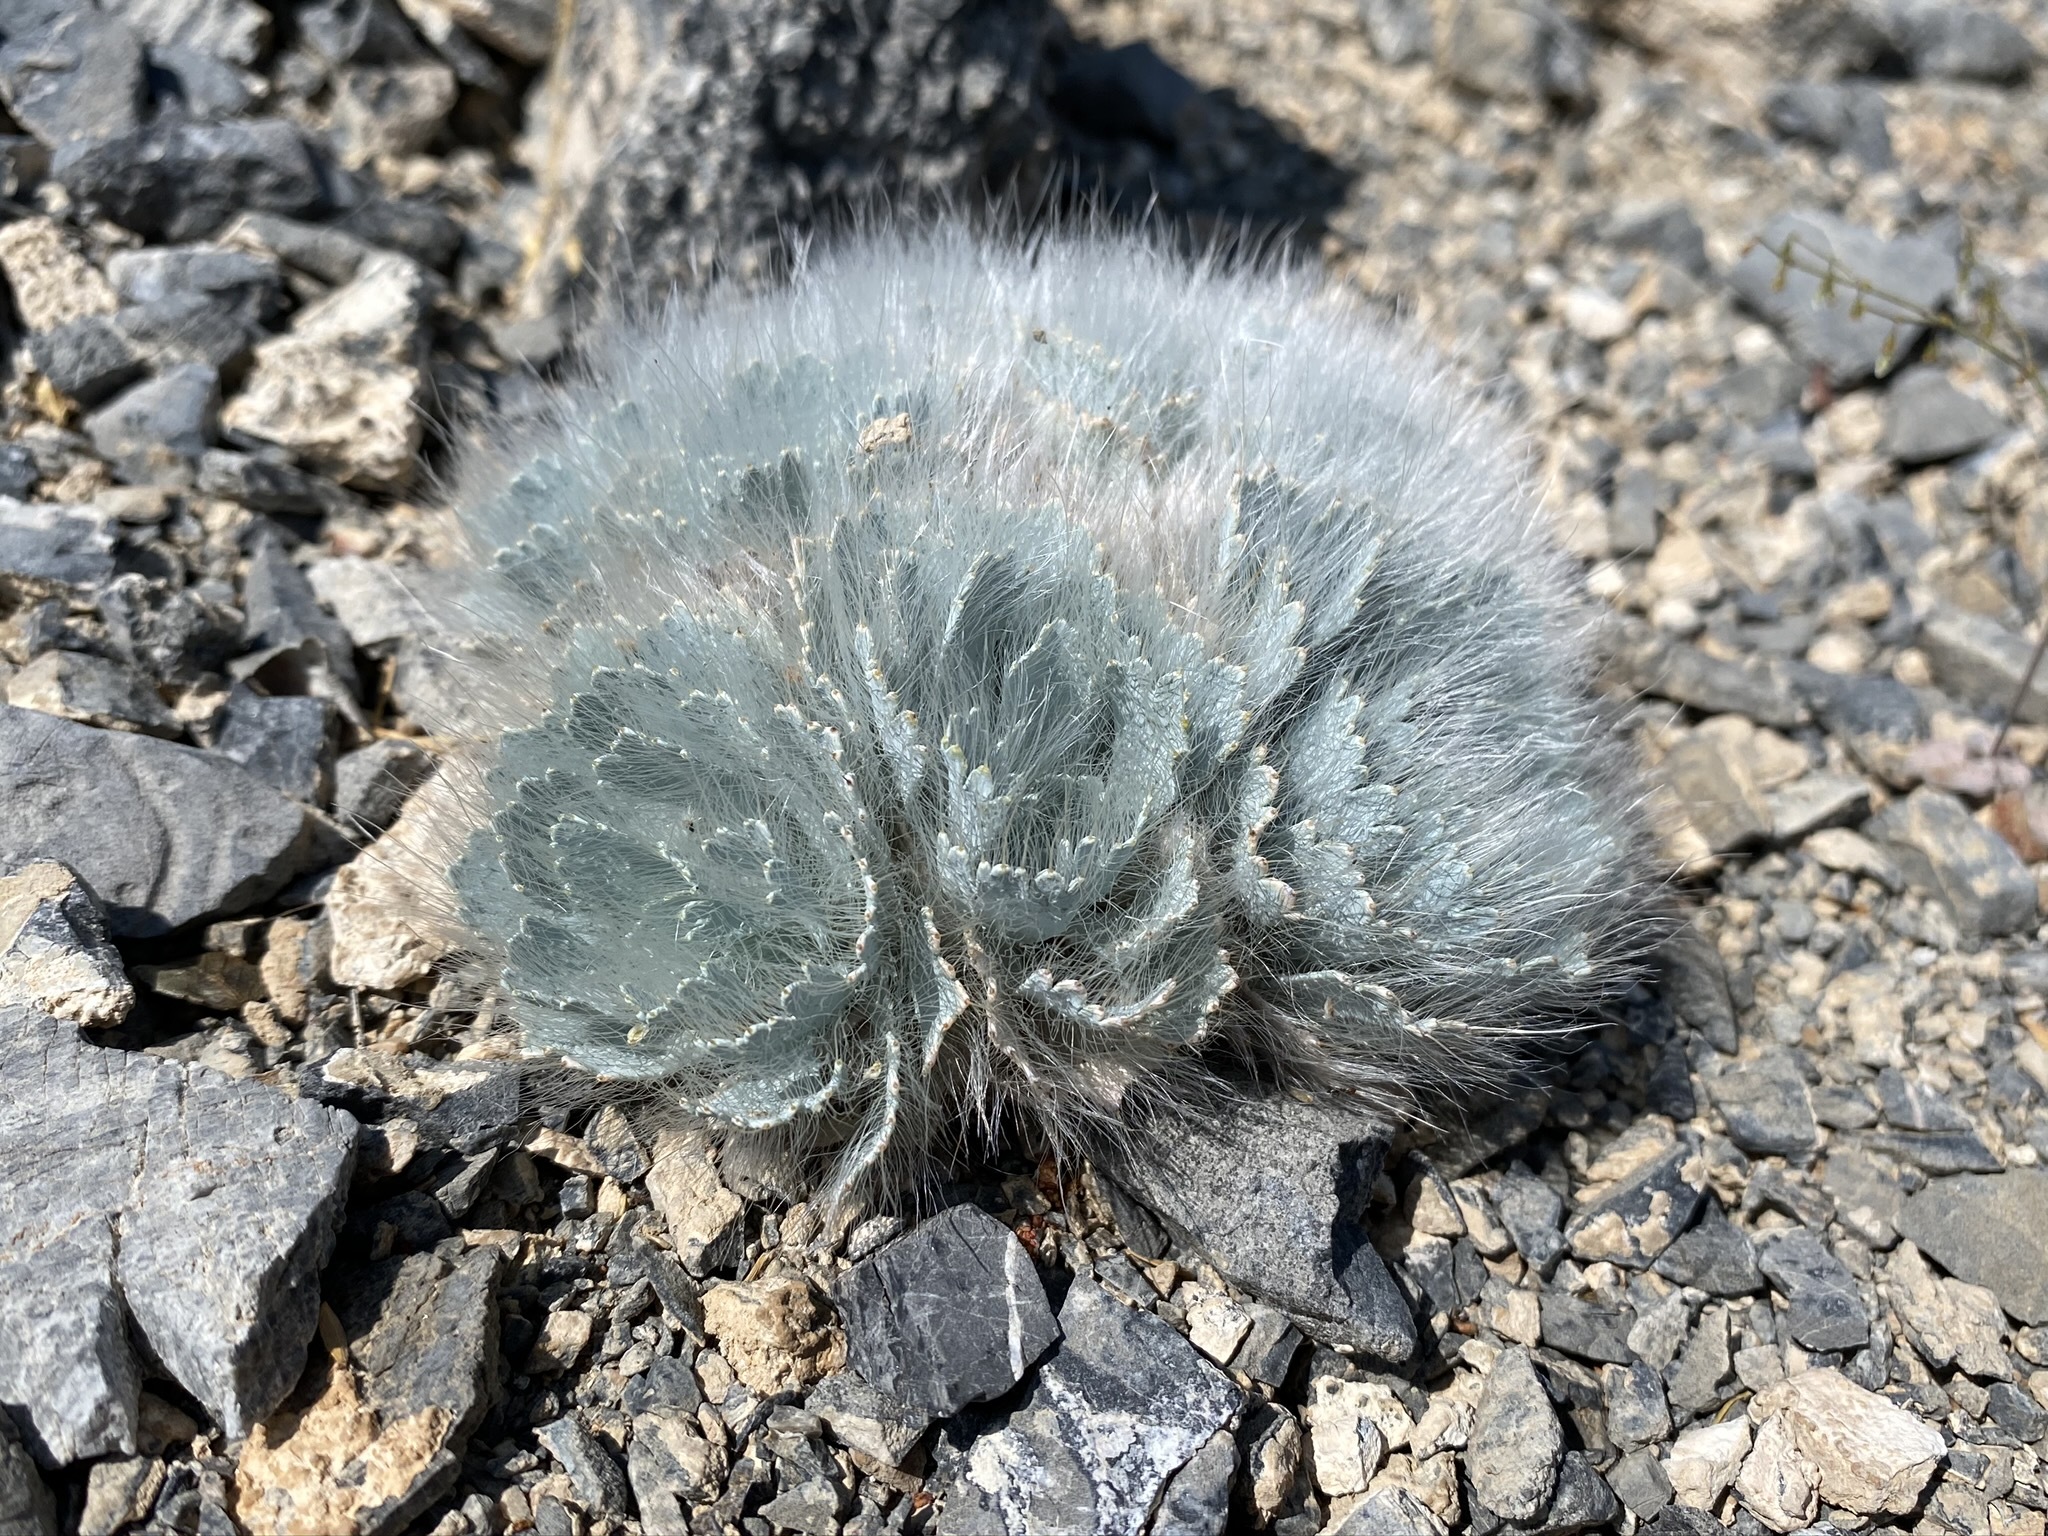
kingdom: Plantae
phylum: Tracheophyta
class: Magnoliopsida
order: Ranunculales
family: Papaveraceae
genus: Arctomecon
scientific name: Arctomecon merriamii
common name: White bear-poppy
